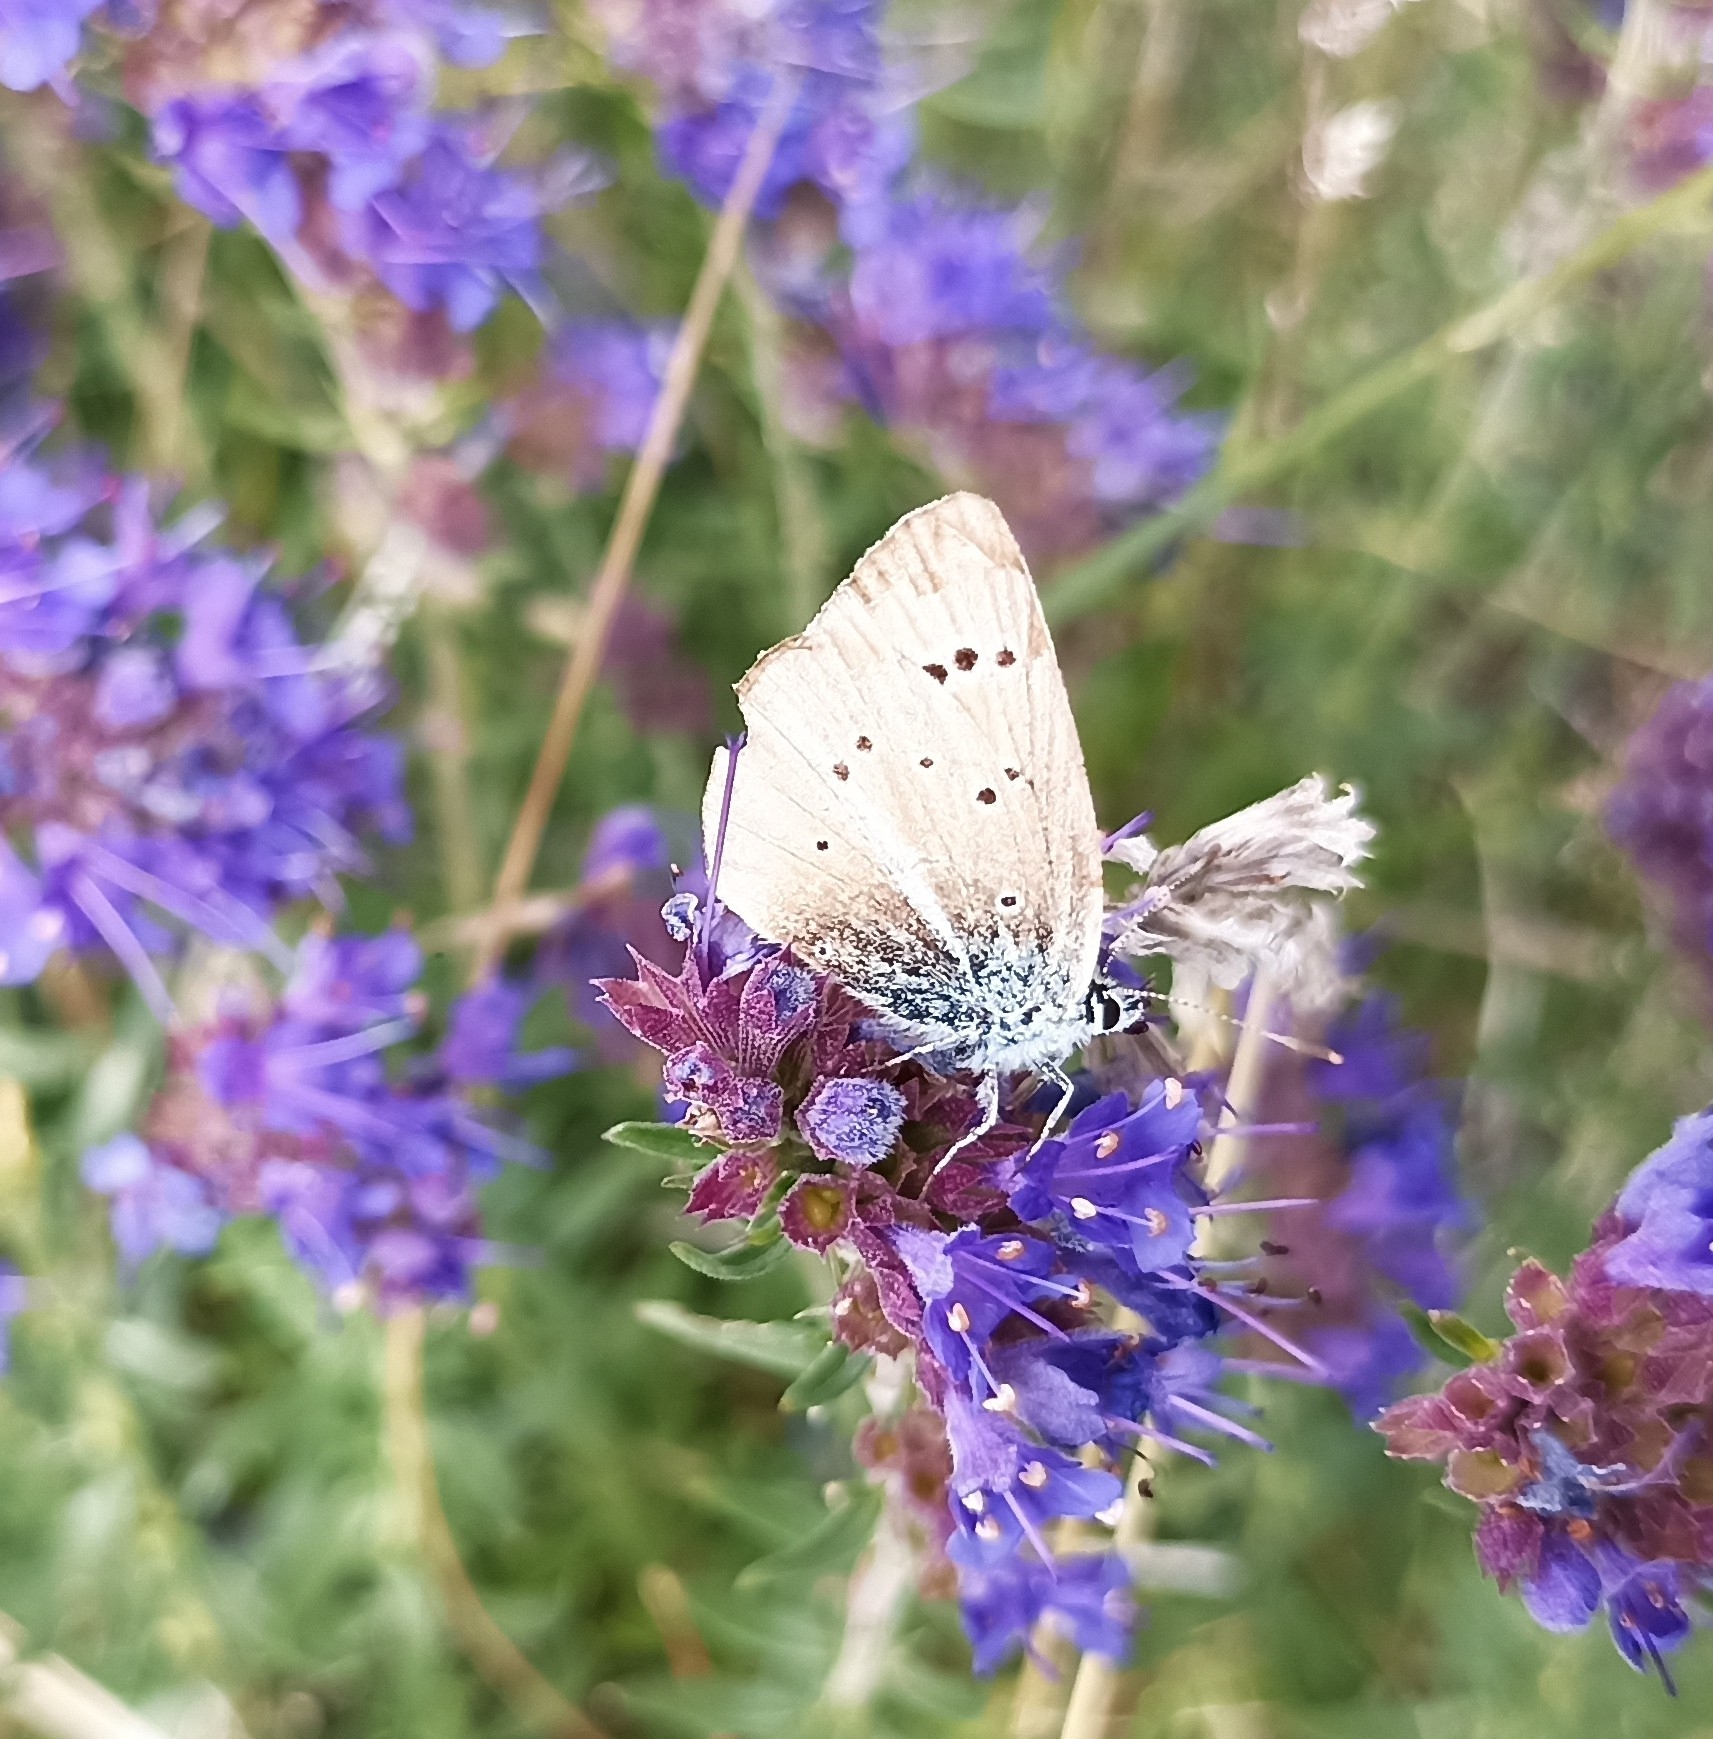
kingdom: Animalia
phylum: Arthropoda
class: Insecta
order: Lepidoptera
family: Lycaenidae
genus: Agrodiaetus
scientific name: Agrodiaetus damon
